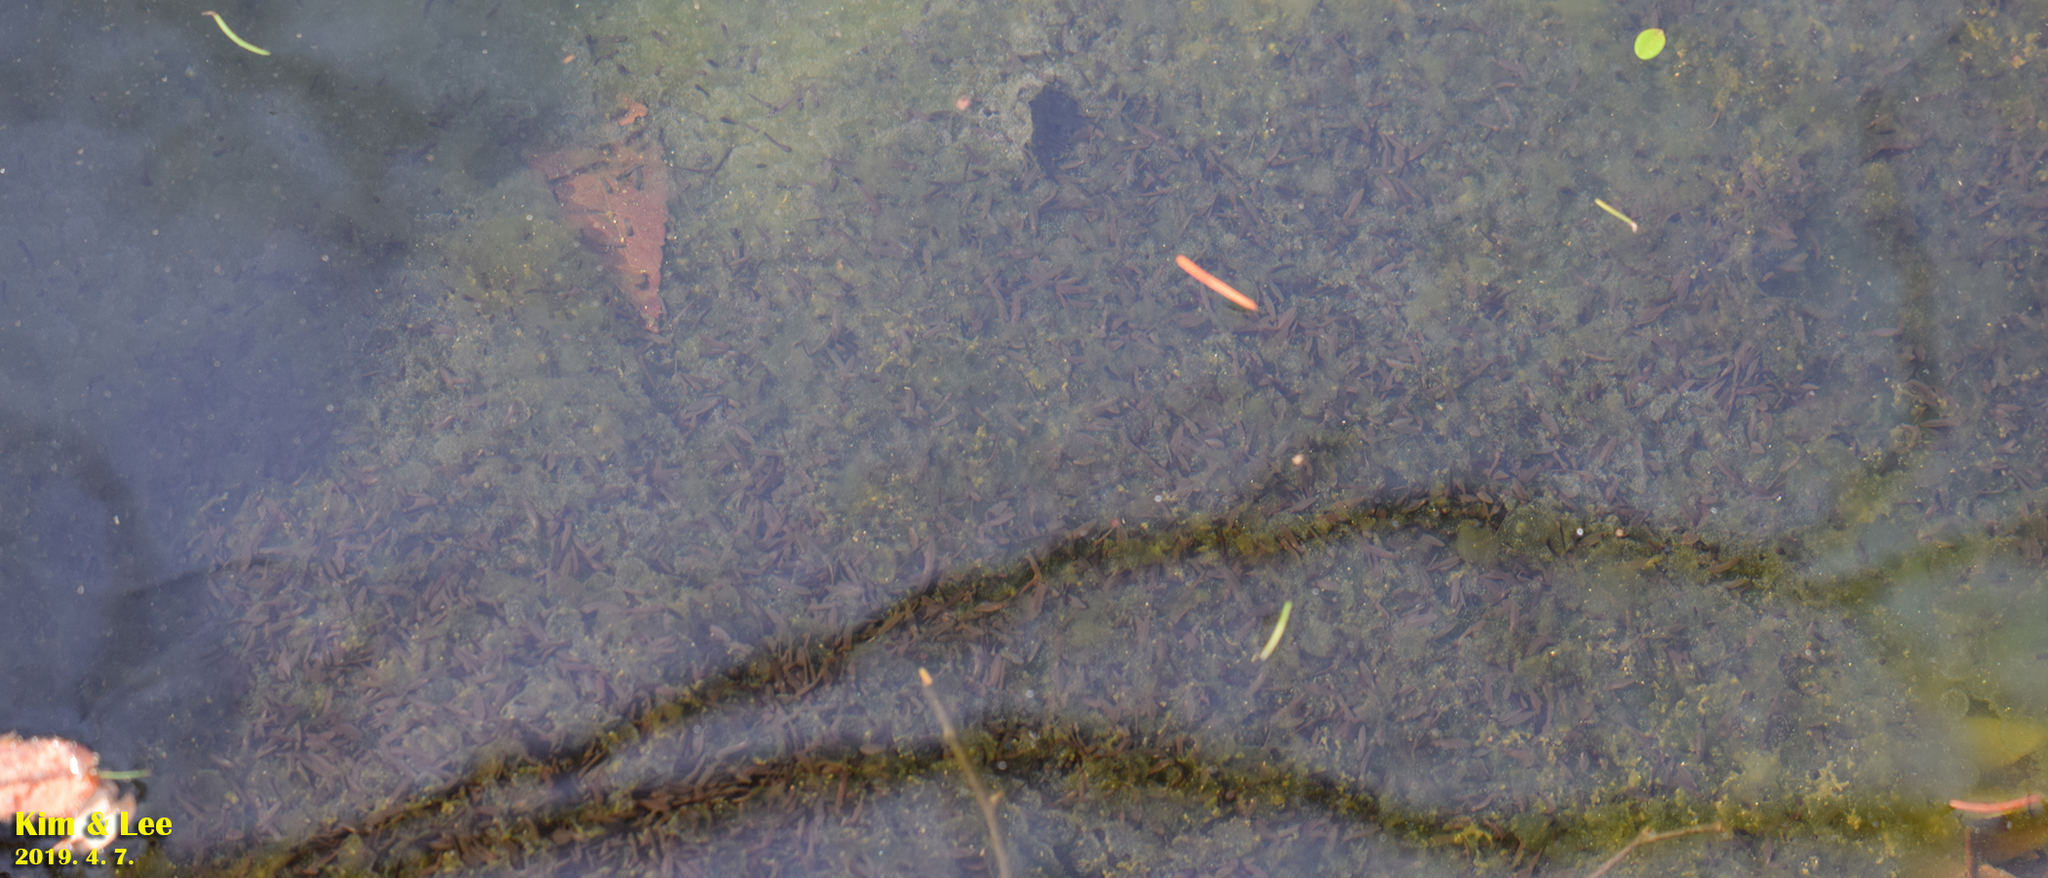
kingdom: Animalia
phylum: Chordata
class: Amphibia
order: Anura
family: Ranidae
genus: Rana
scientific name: Rana uenoi
